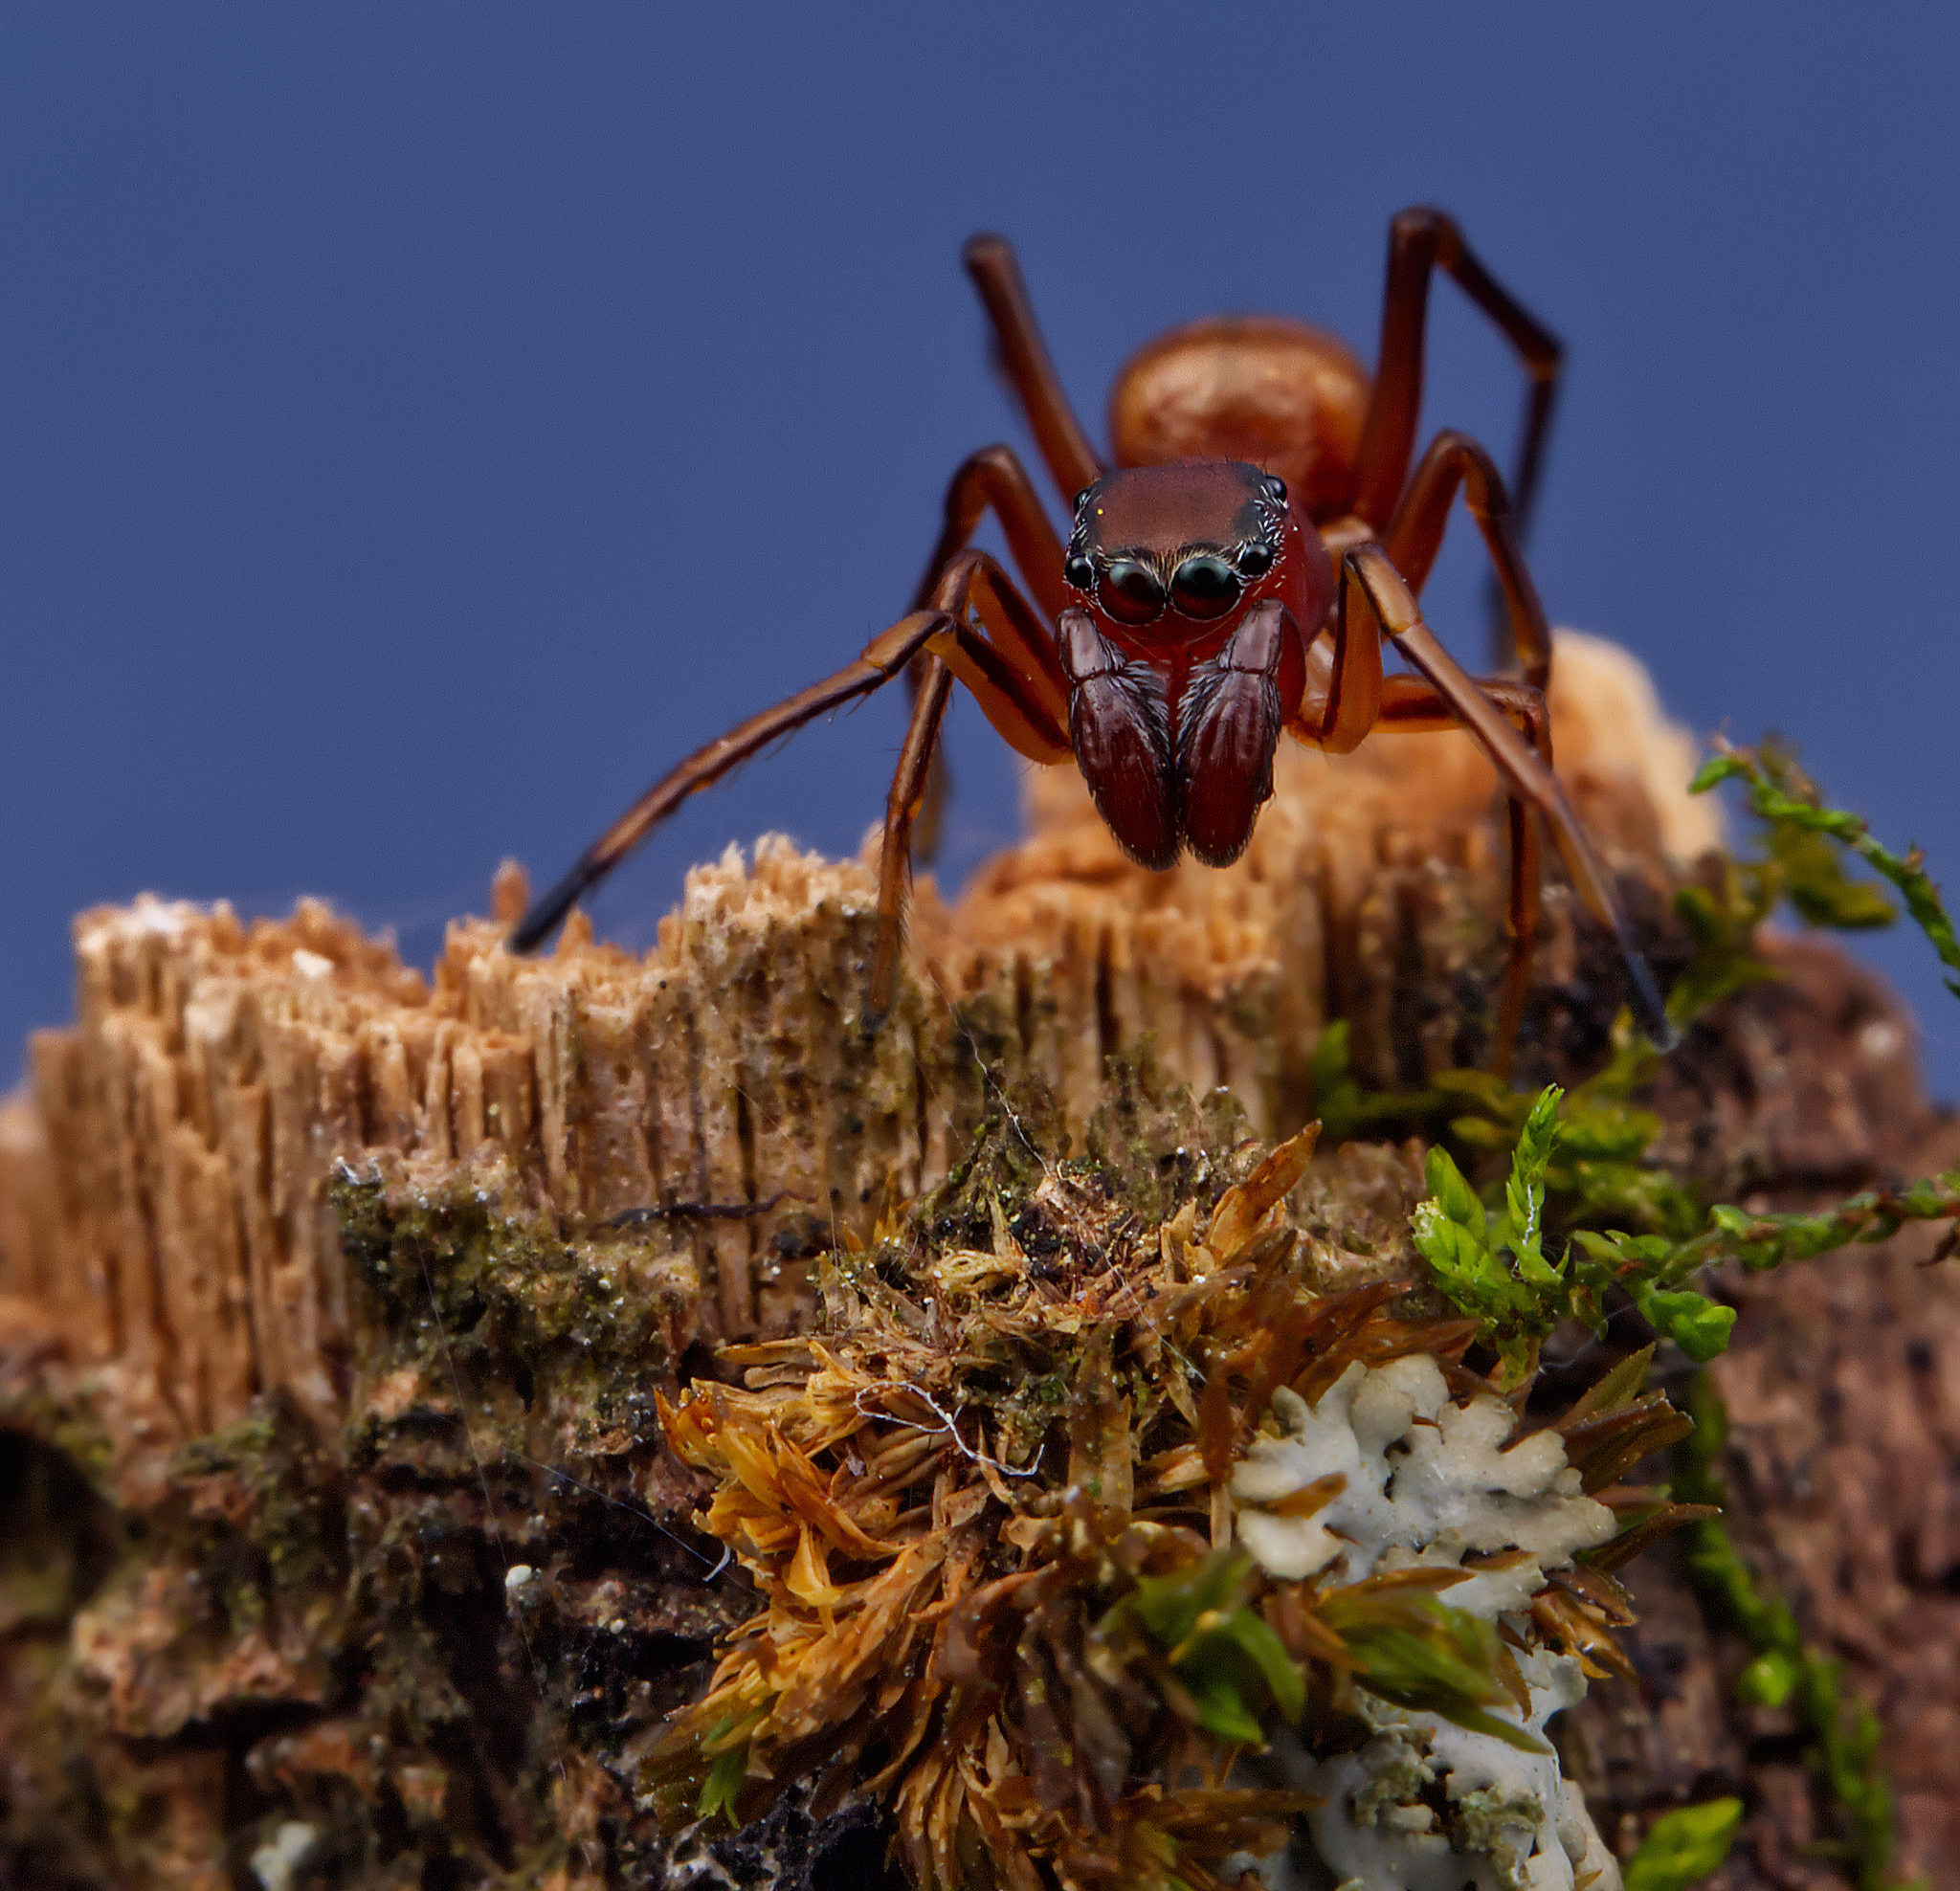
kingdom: Animalia
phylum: Arthropoda
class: Arachnida
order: Araneae
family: Salticidae
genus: Sarinda
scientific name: Sarinda hentzi
